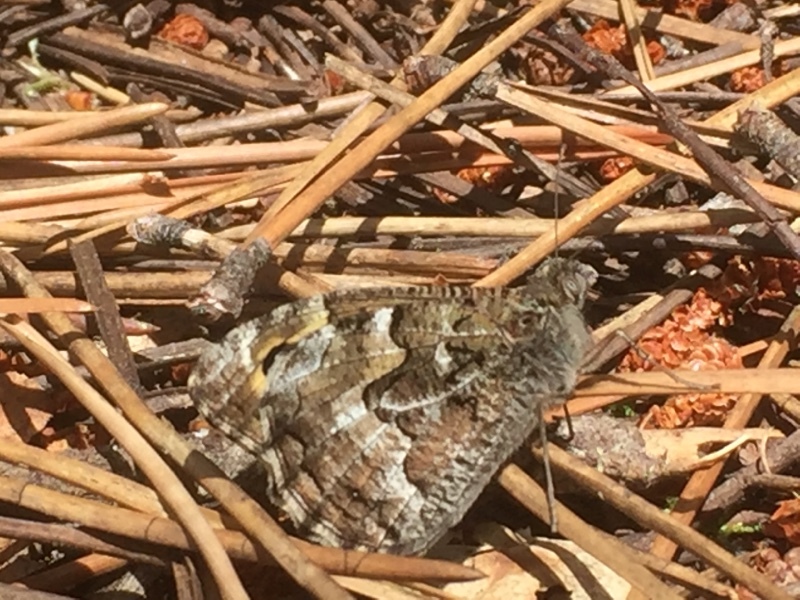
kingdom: Animalia
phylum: Arthropoda
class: Insecta
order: Lepidoptera
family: Nymphalidae
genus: Hipparchia
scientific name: Hipparchia semele
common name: Grayling
